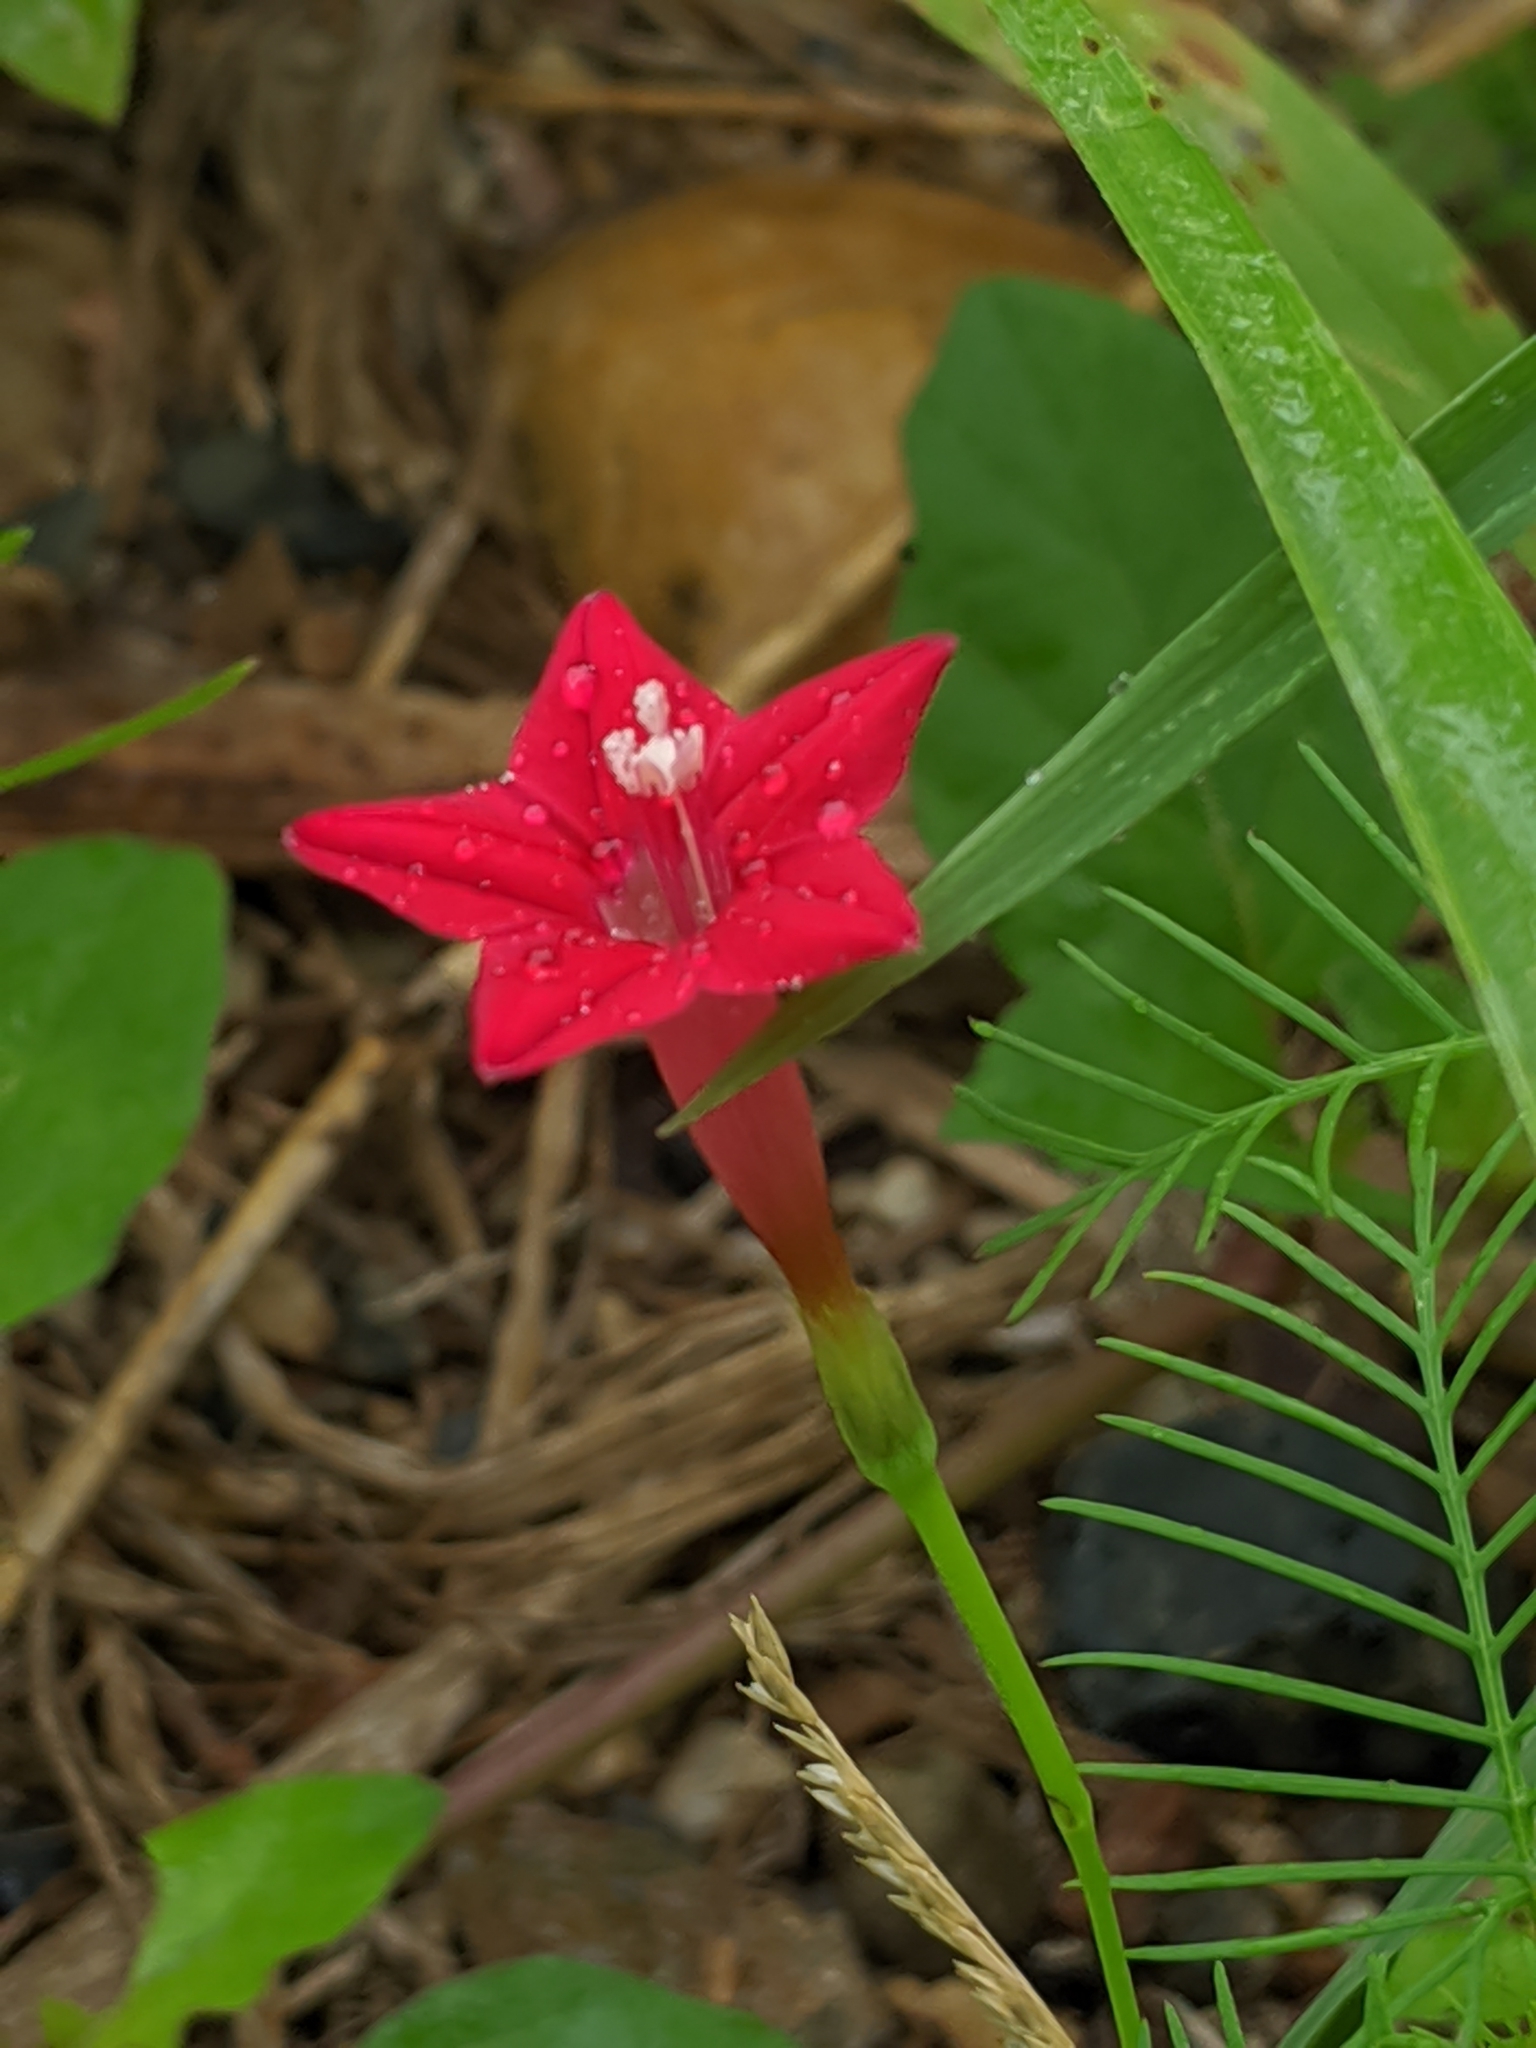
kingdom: Plantae
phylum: Tracheophyta
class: Magnoliopsida
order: Solanales
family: Convolvulaceae
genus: Ipomoea
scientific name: Ipomoea quamoclit
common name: Cypress vine
